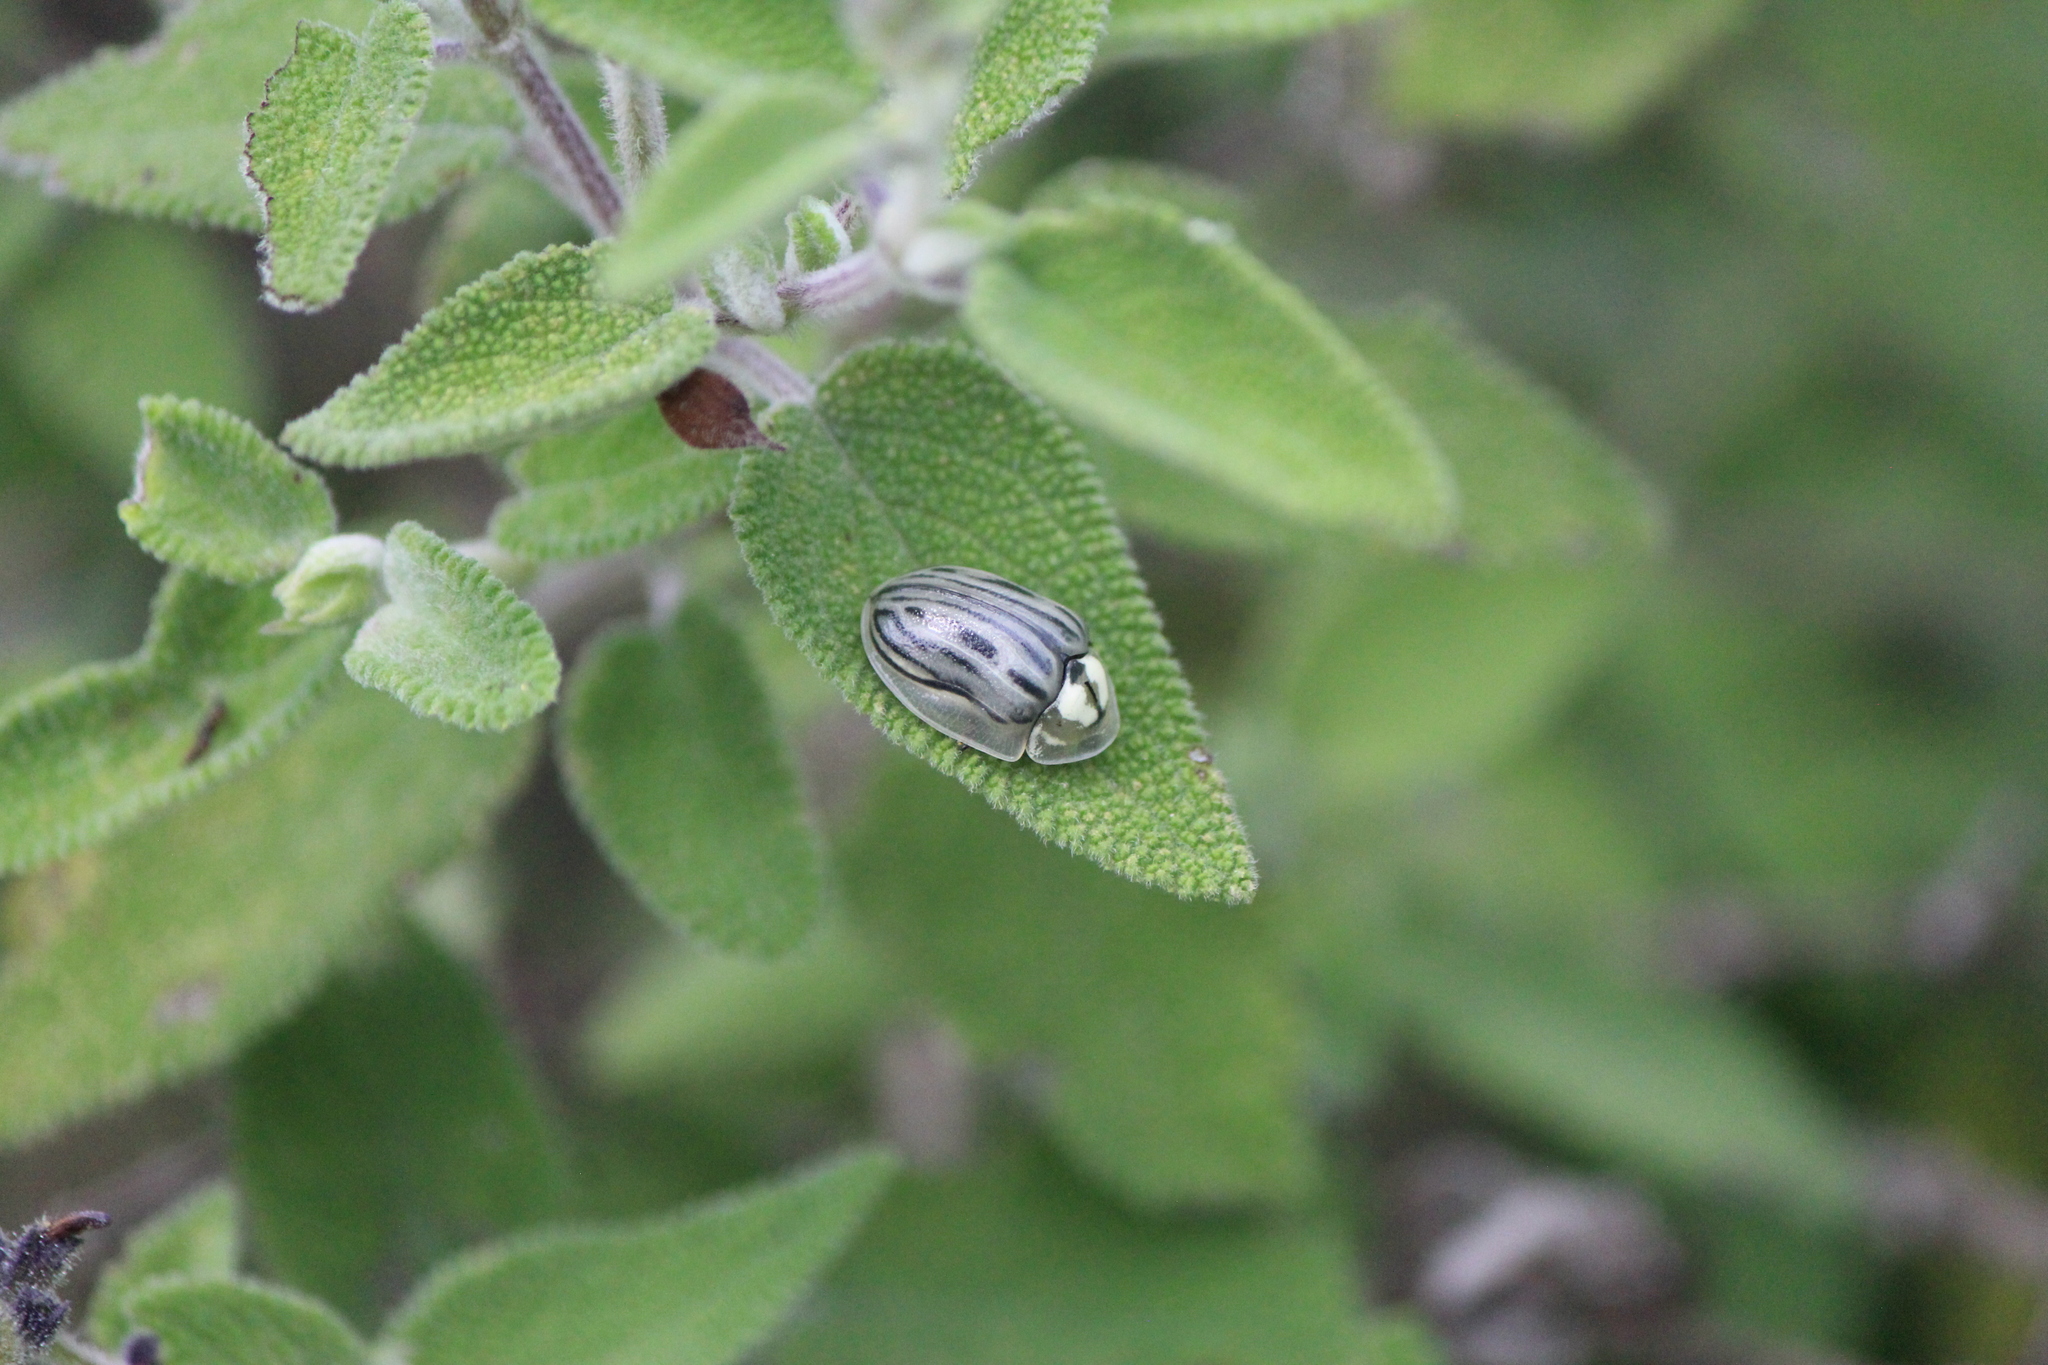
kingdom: Animalia
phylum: Arthropoda
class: Insecta
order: Coleoptera
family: Chrysomelidae
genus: Physonota
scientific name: Physonota ovalis
